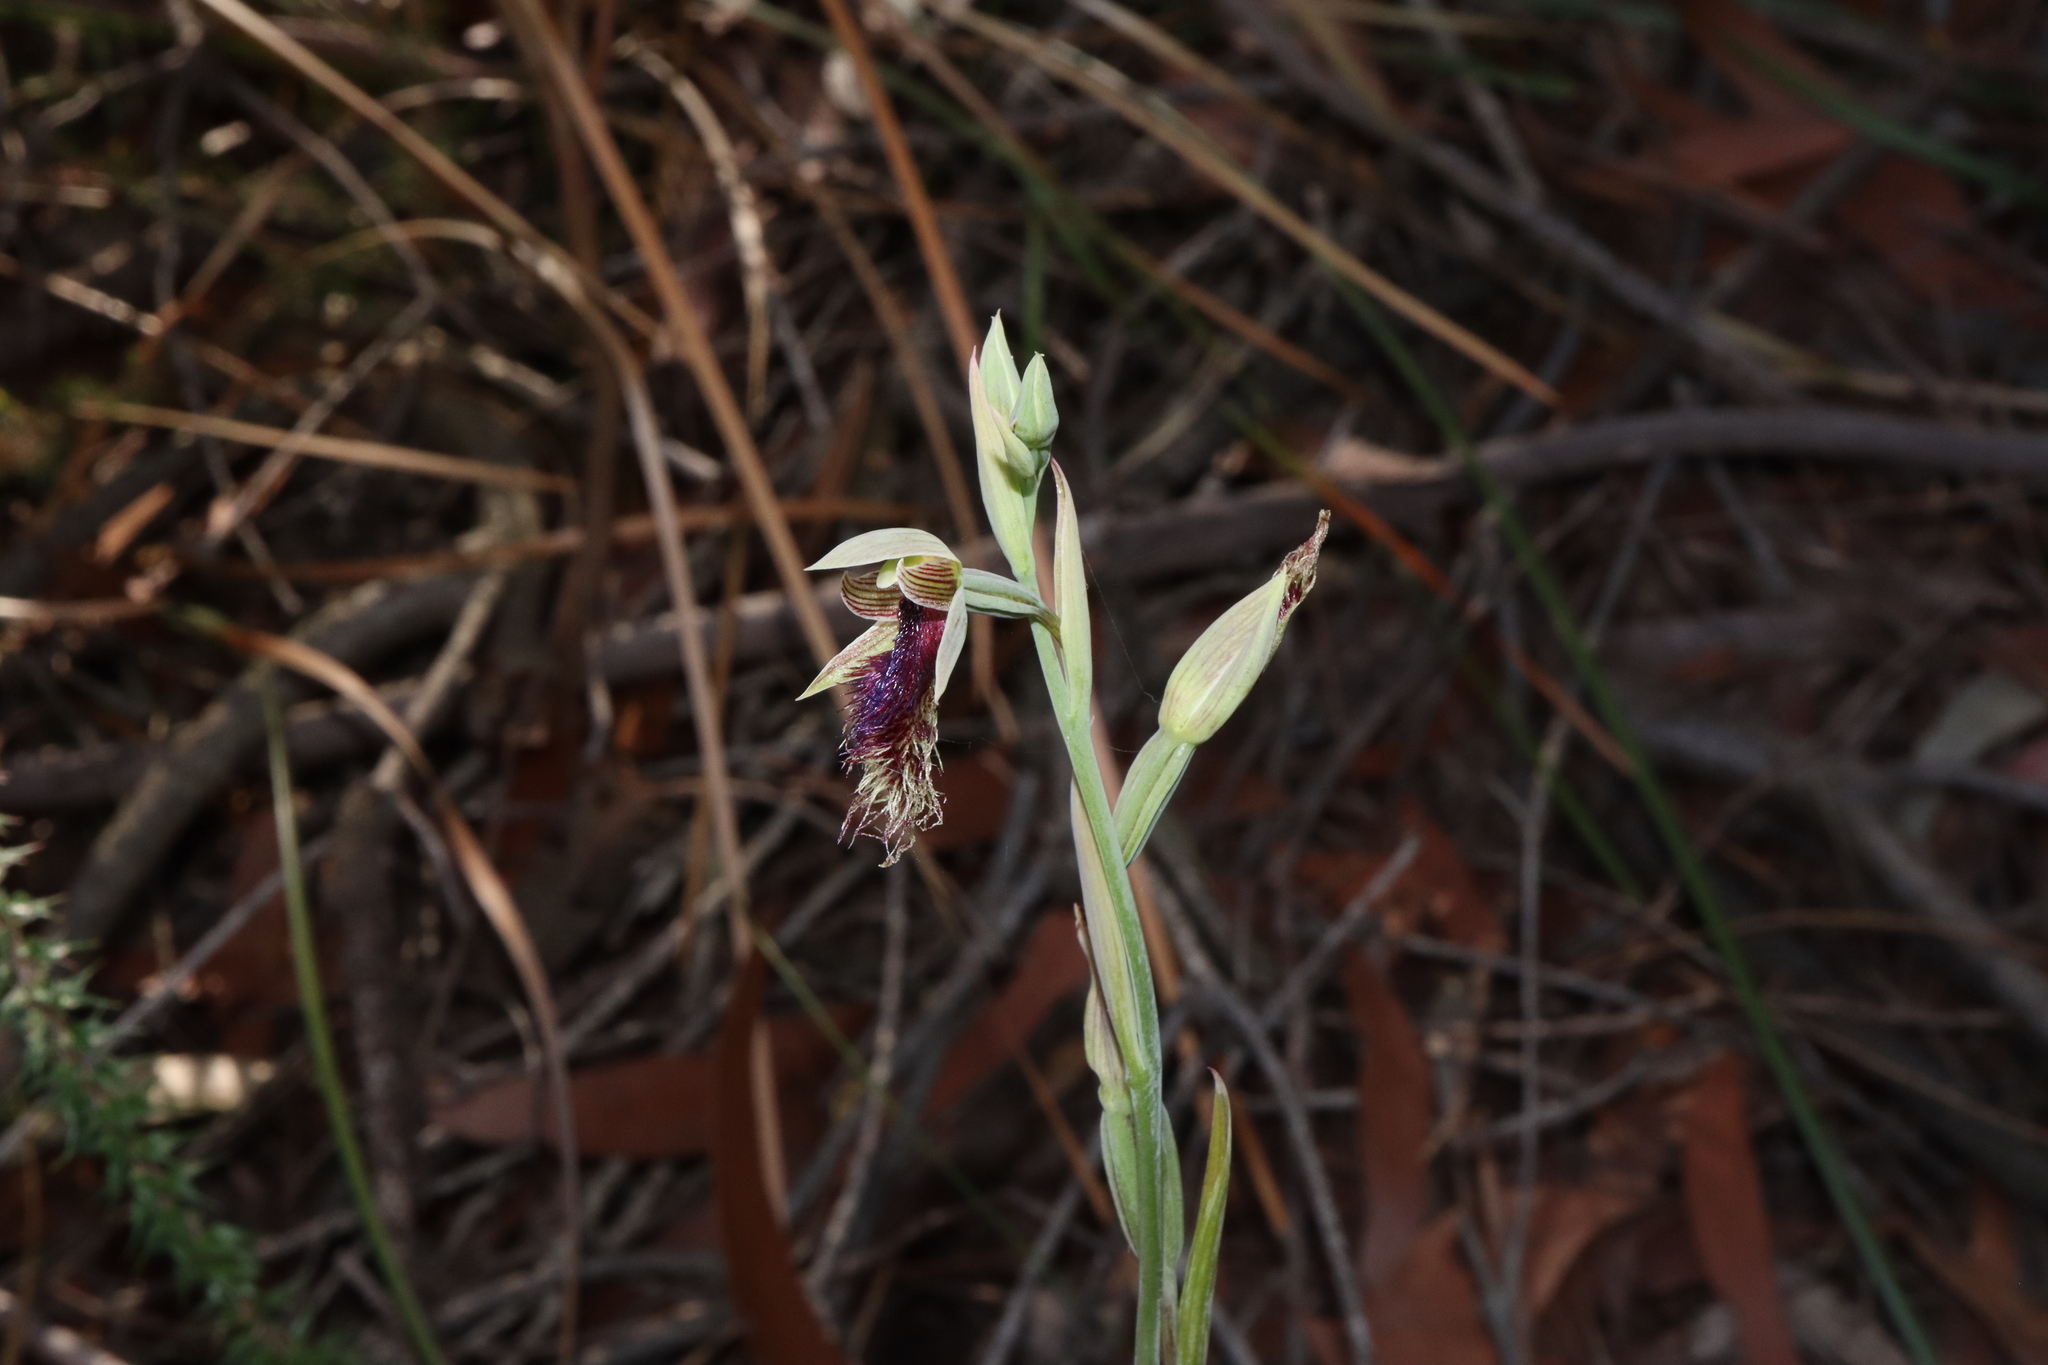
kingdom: Plantae
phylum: Tracheophyta
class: Liliopsida
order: Asparagales
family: Orchidaceae
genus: Calochilus
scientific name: Calochilus robertsonii
